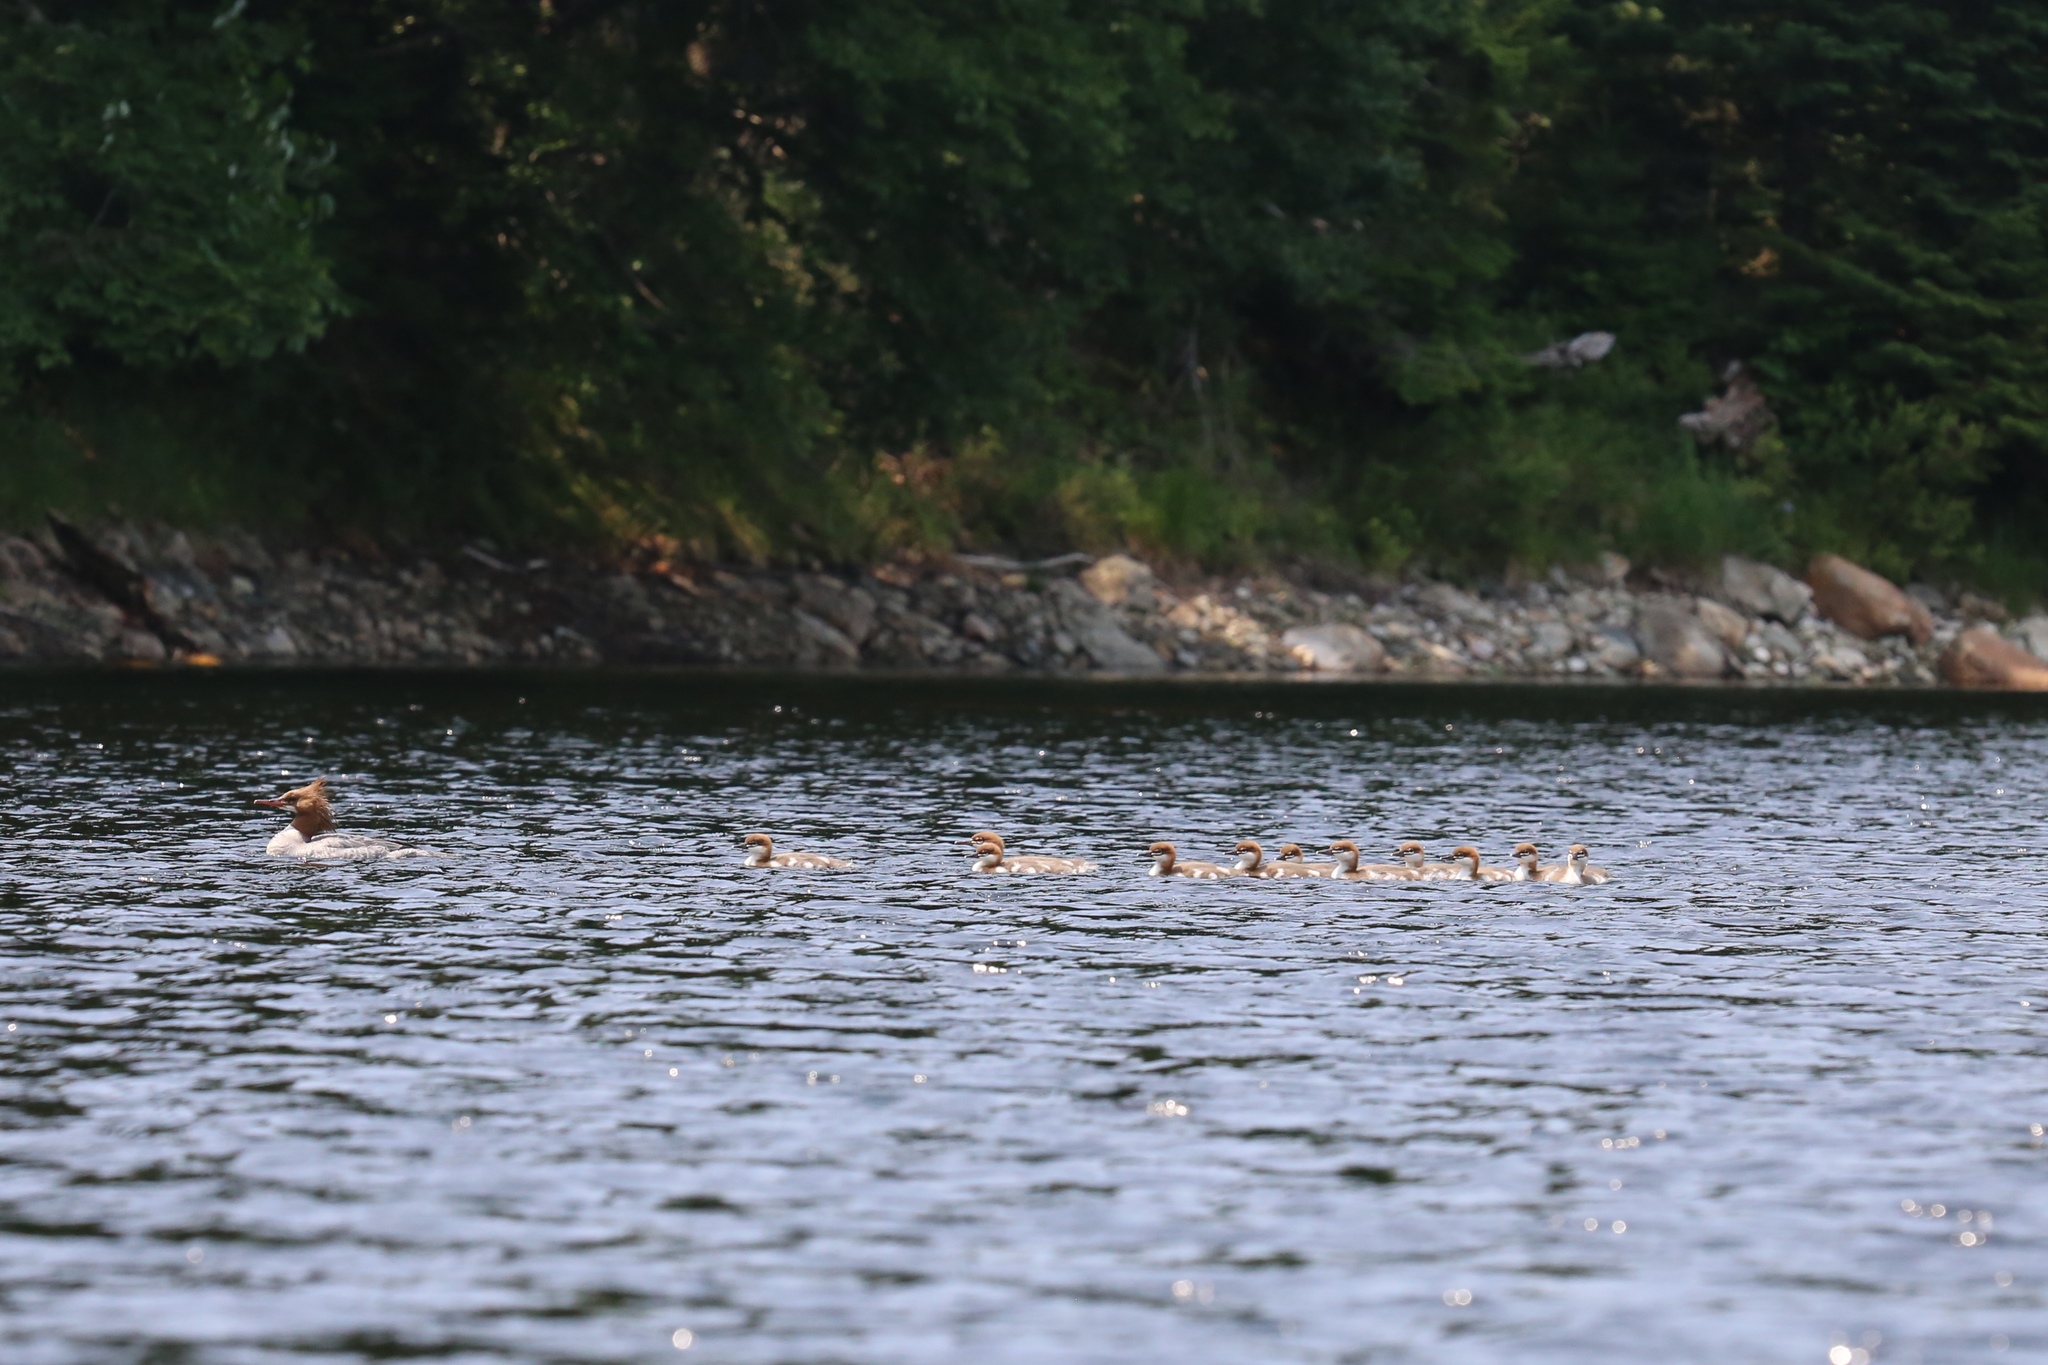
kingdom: Animalia
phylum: Chordata
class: Aves
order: Anseriformes
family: Anatidae
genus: Mergus
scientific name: Mergus merganser
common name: Common merganser
